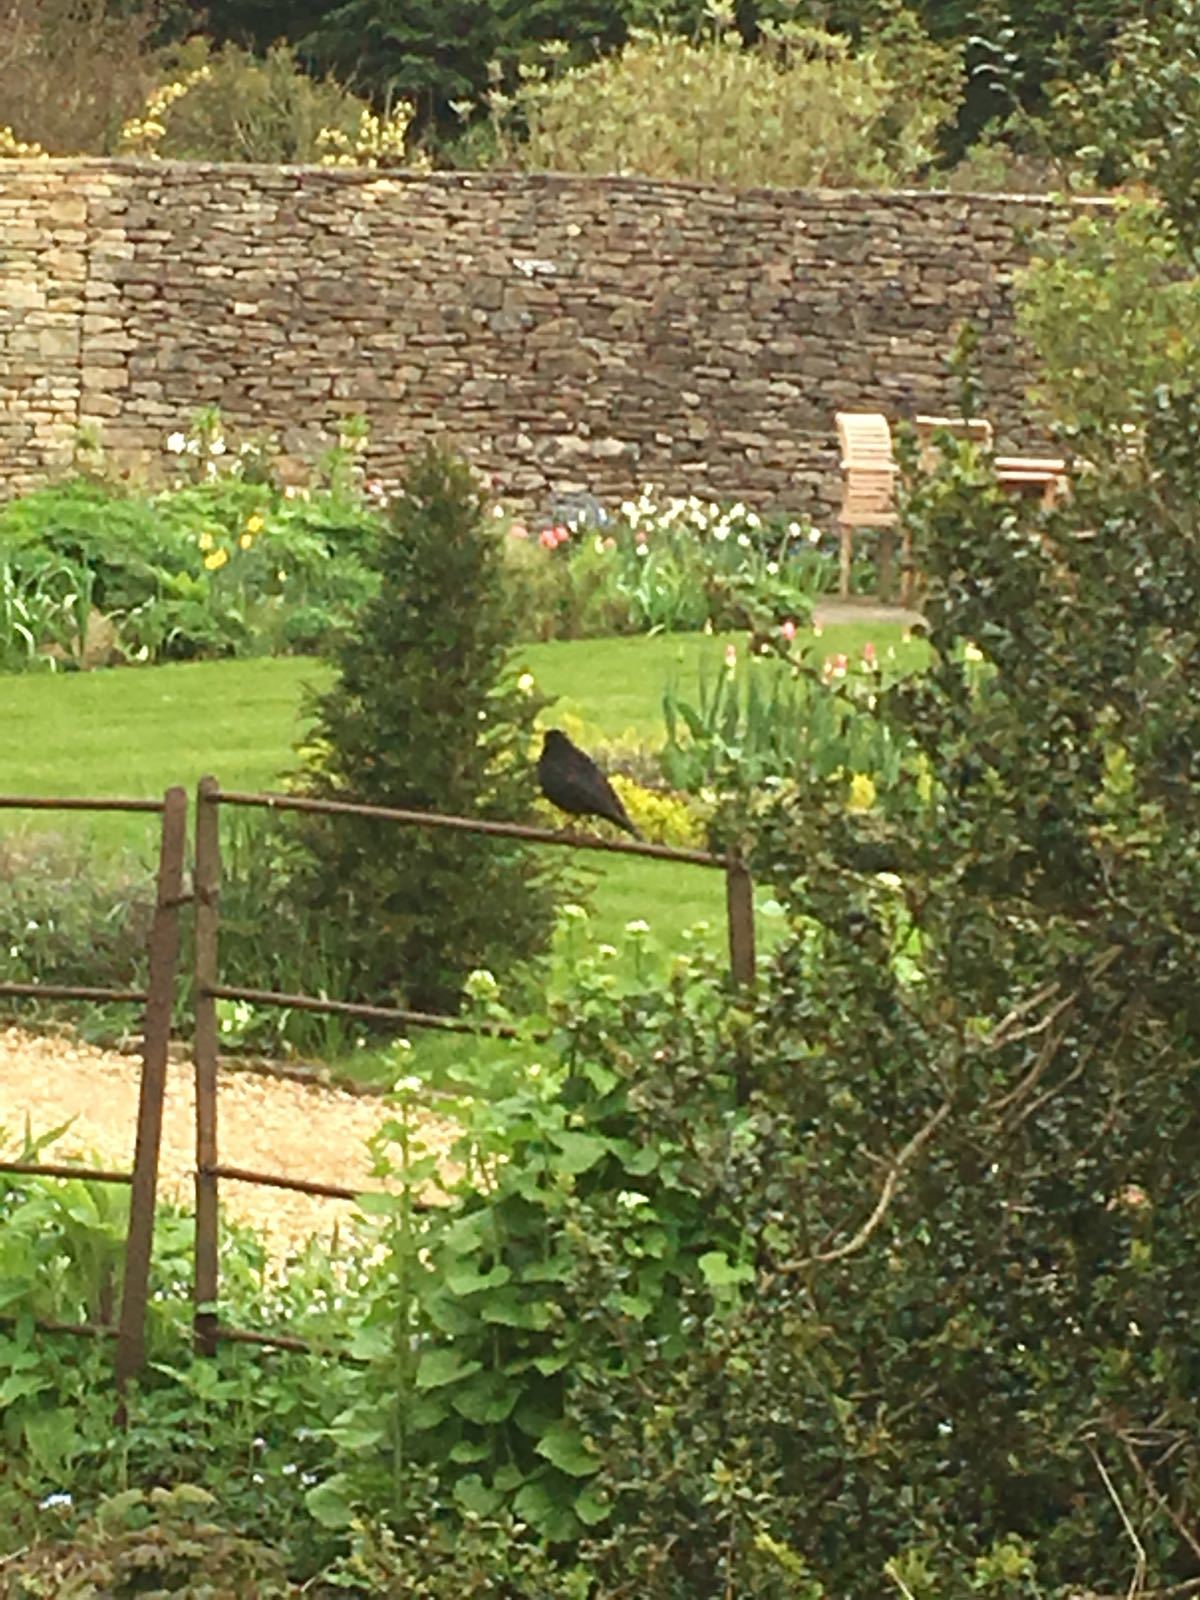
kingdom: Animalia
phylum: Chordata
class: Aves
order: Passeriformes
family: Turdidae
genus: Turdus
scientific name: Turdus merula
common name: Common blackbird
